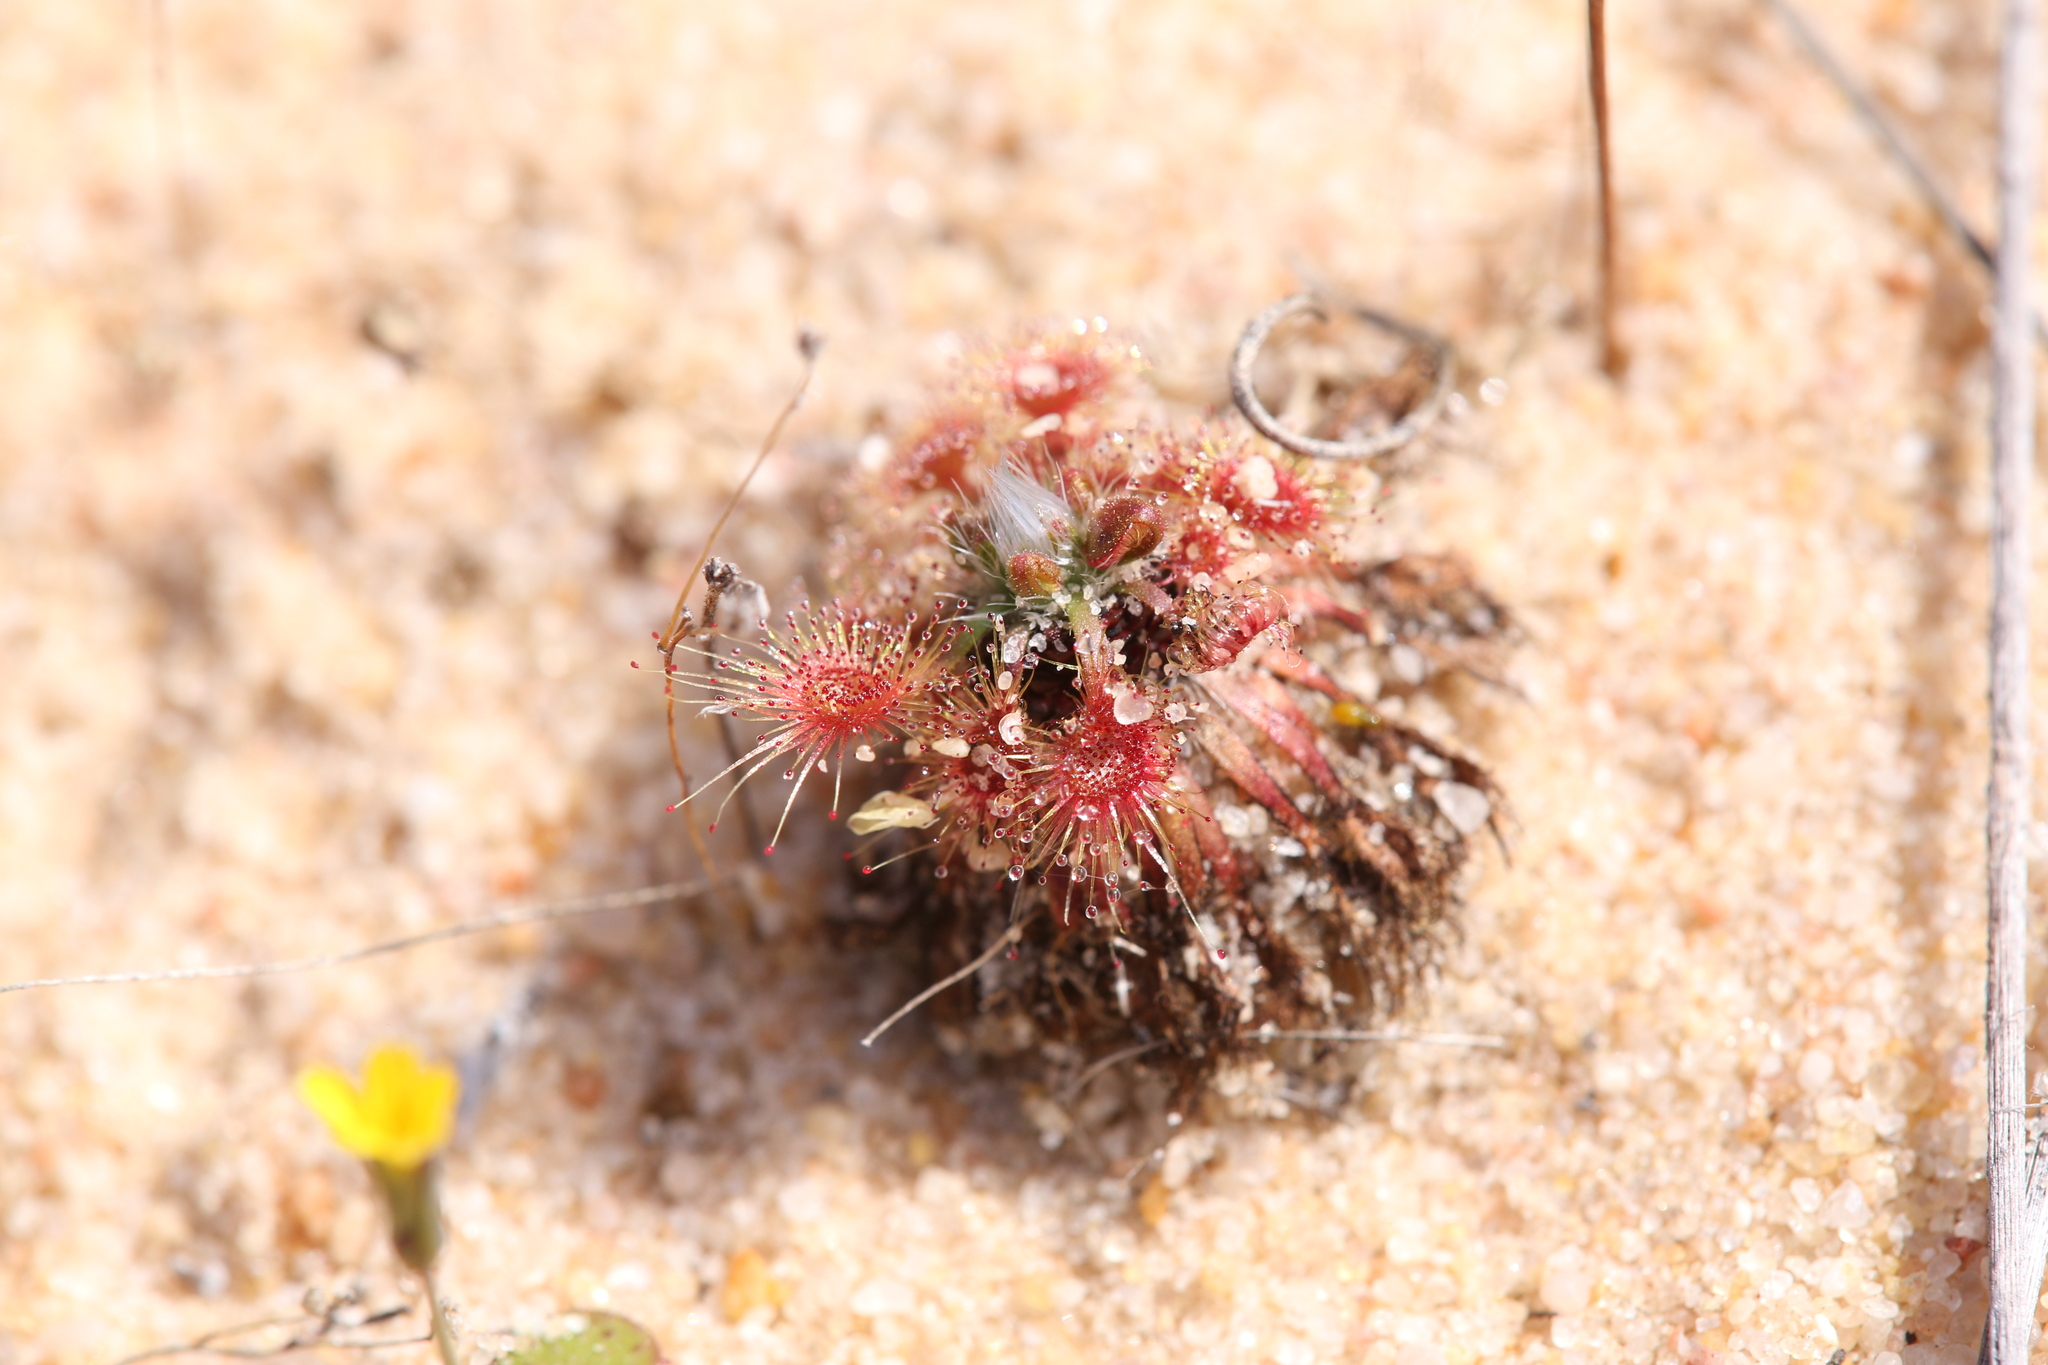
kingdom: Plantae
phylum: Tracheophyta
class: Magnoliopsida
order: Caryophyllales
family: Droseraceae
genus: Drosera
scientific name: Drosera nitidula
